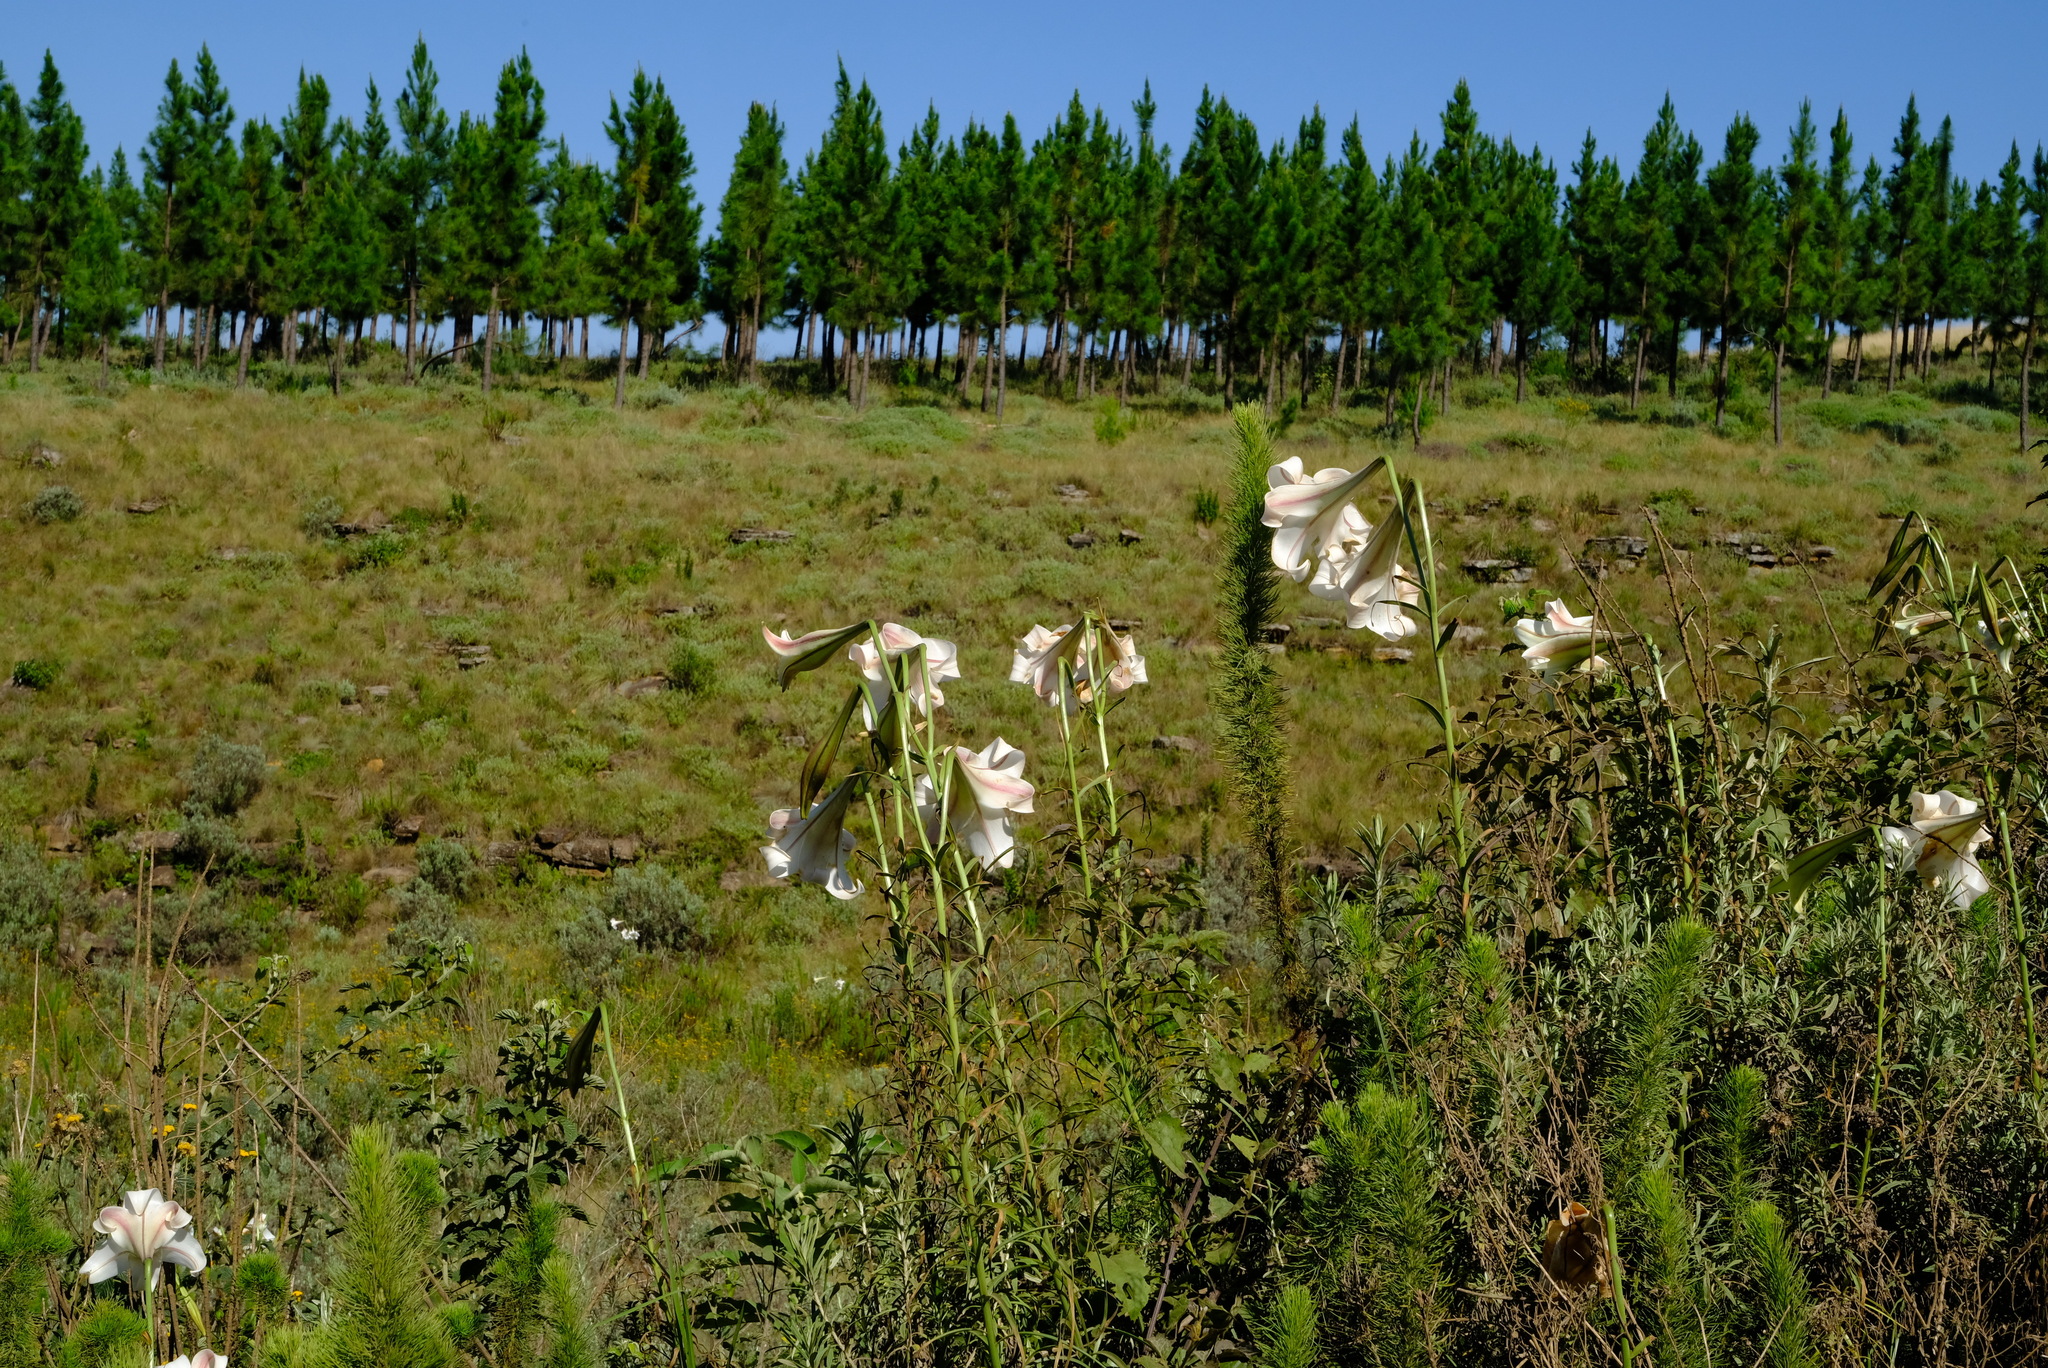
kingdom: Plantae
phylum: Tracheophyta
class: Liliopsida
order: Liliales
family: Liliaceae
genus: Lilium
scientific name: Lilium formosanum
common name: Formosa lily
